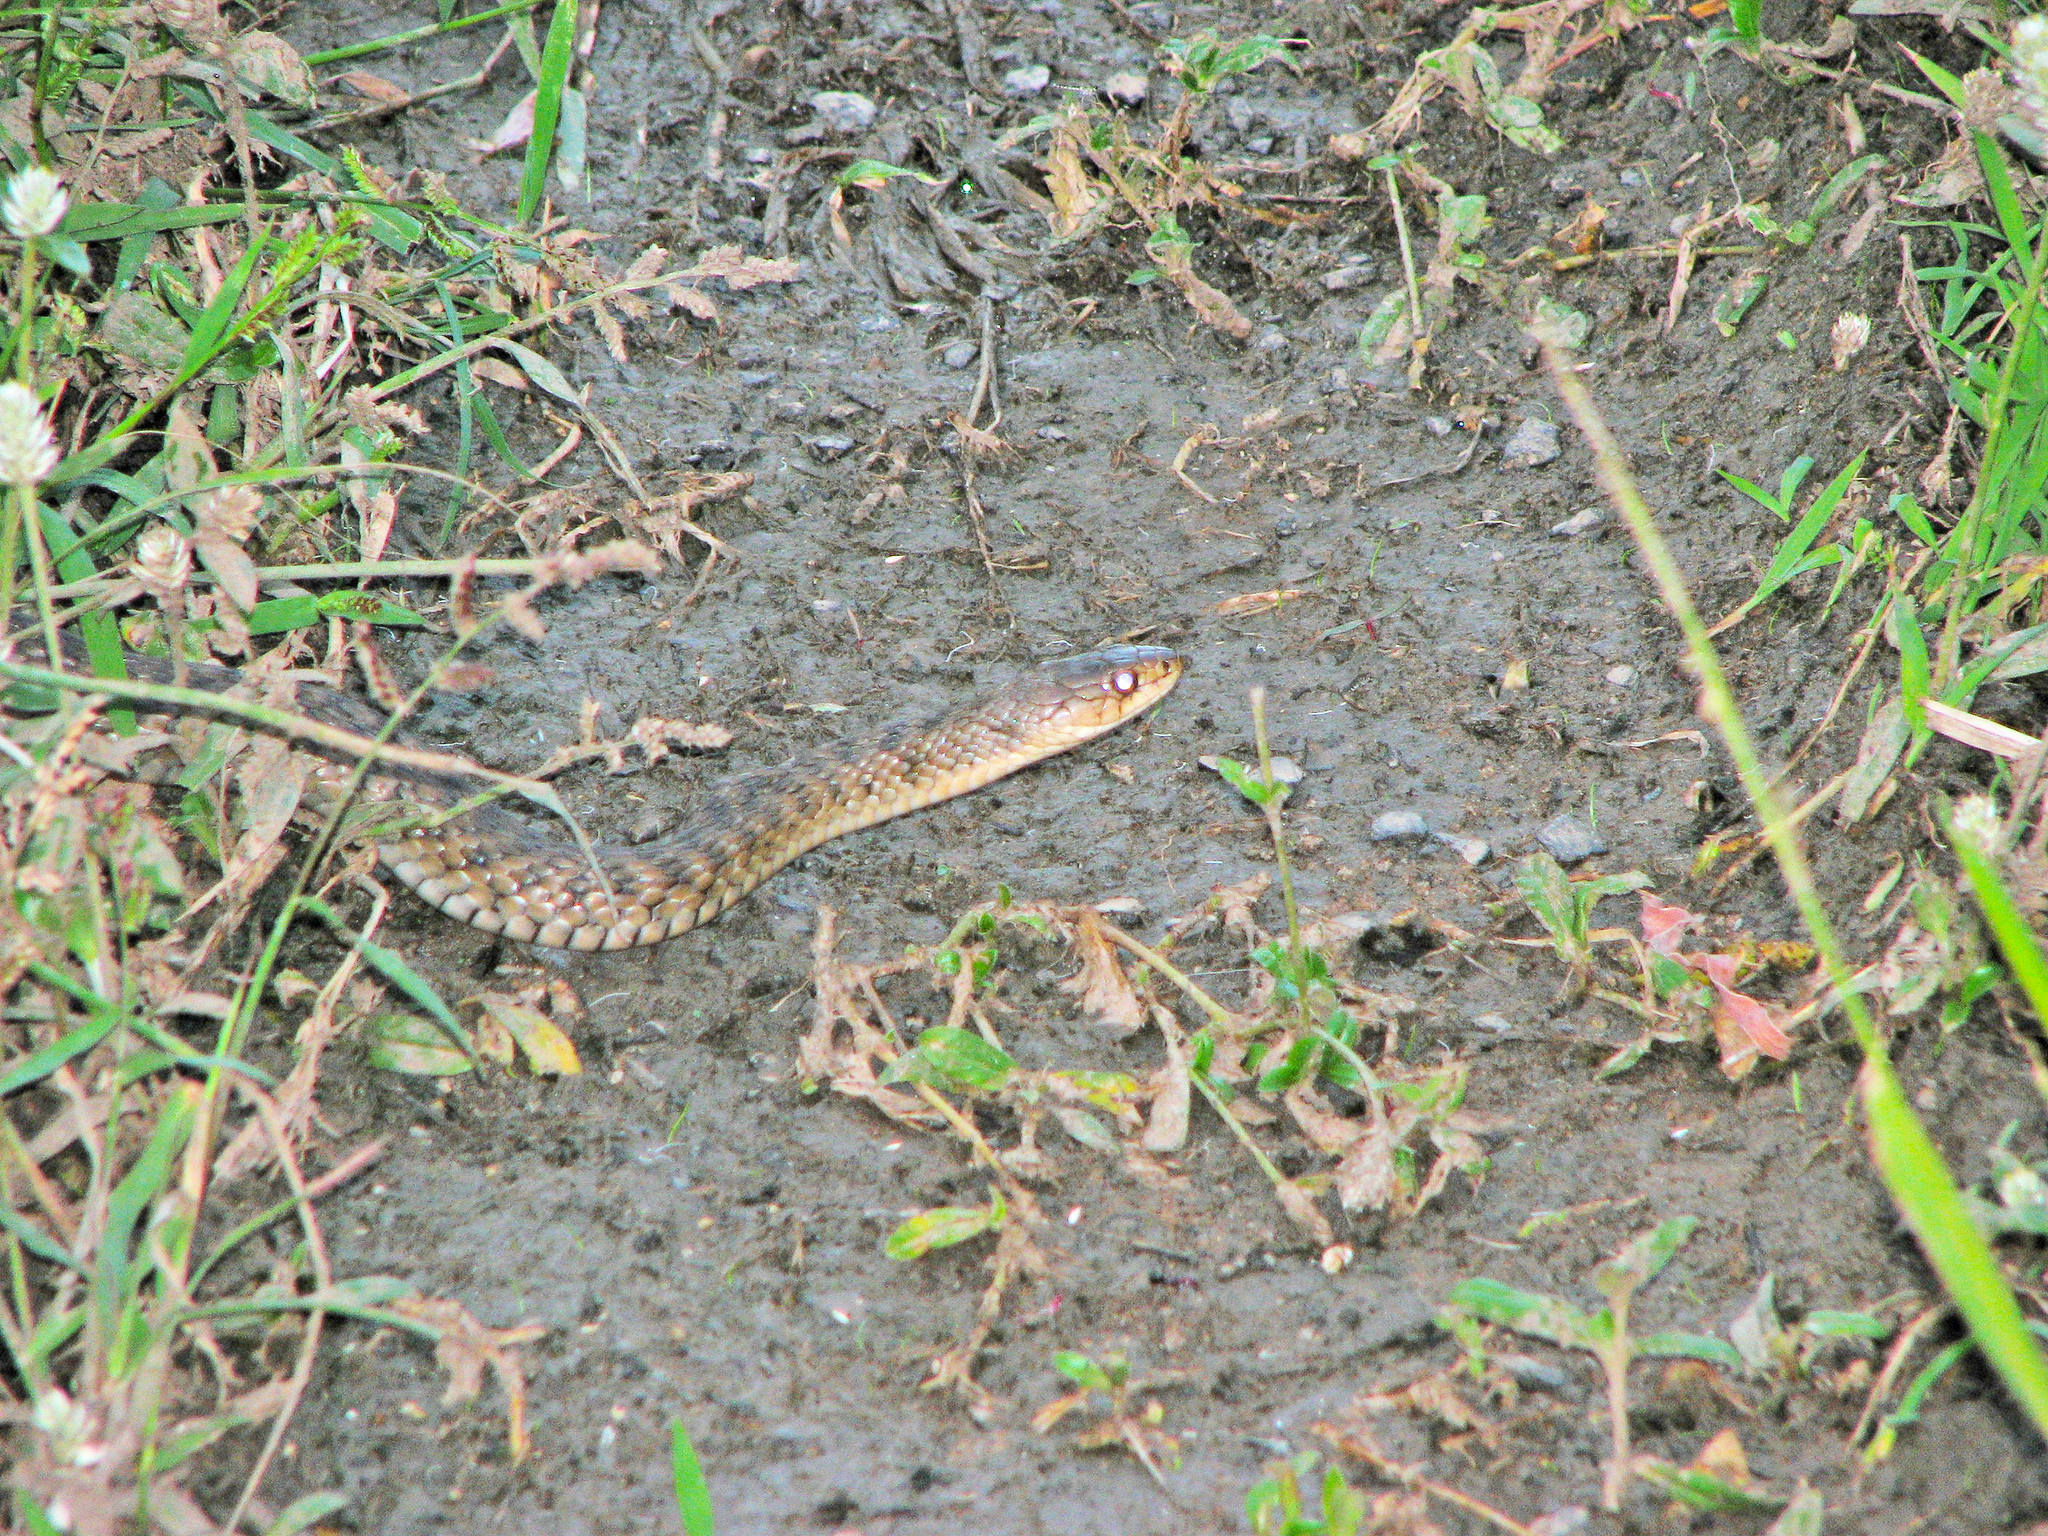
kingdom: Animalia
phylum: Chordata
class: Squamata
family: Colubridae
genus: Tropidonophis
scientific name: Tropidonophis mairii
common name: Common keelback
